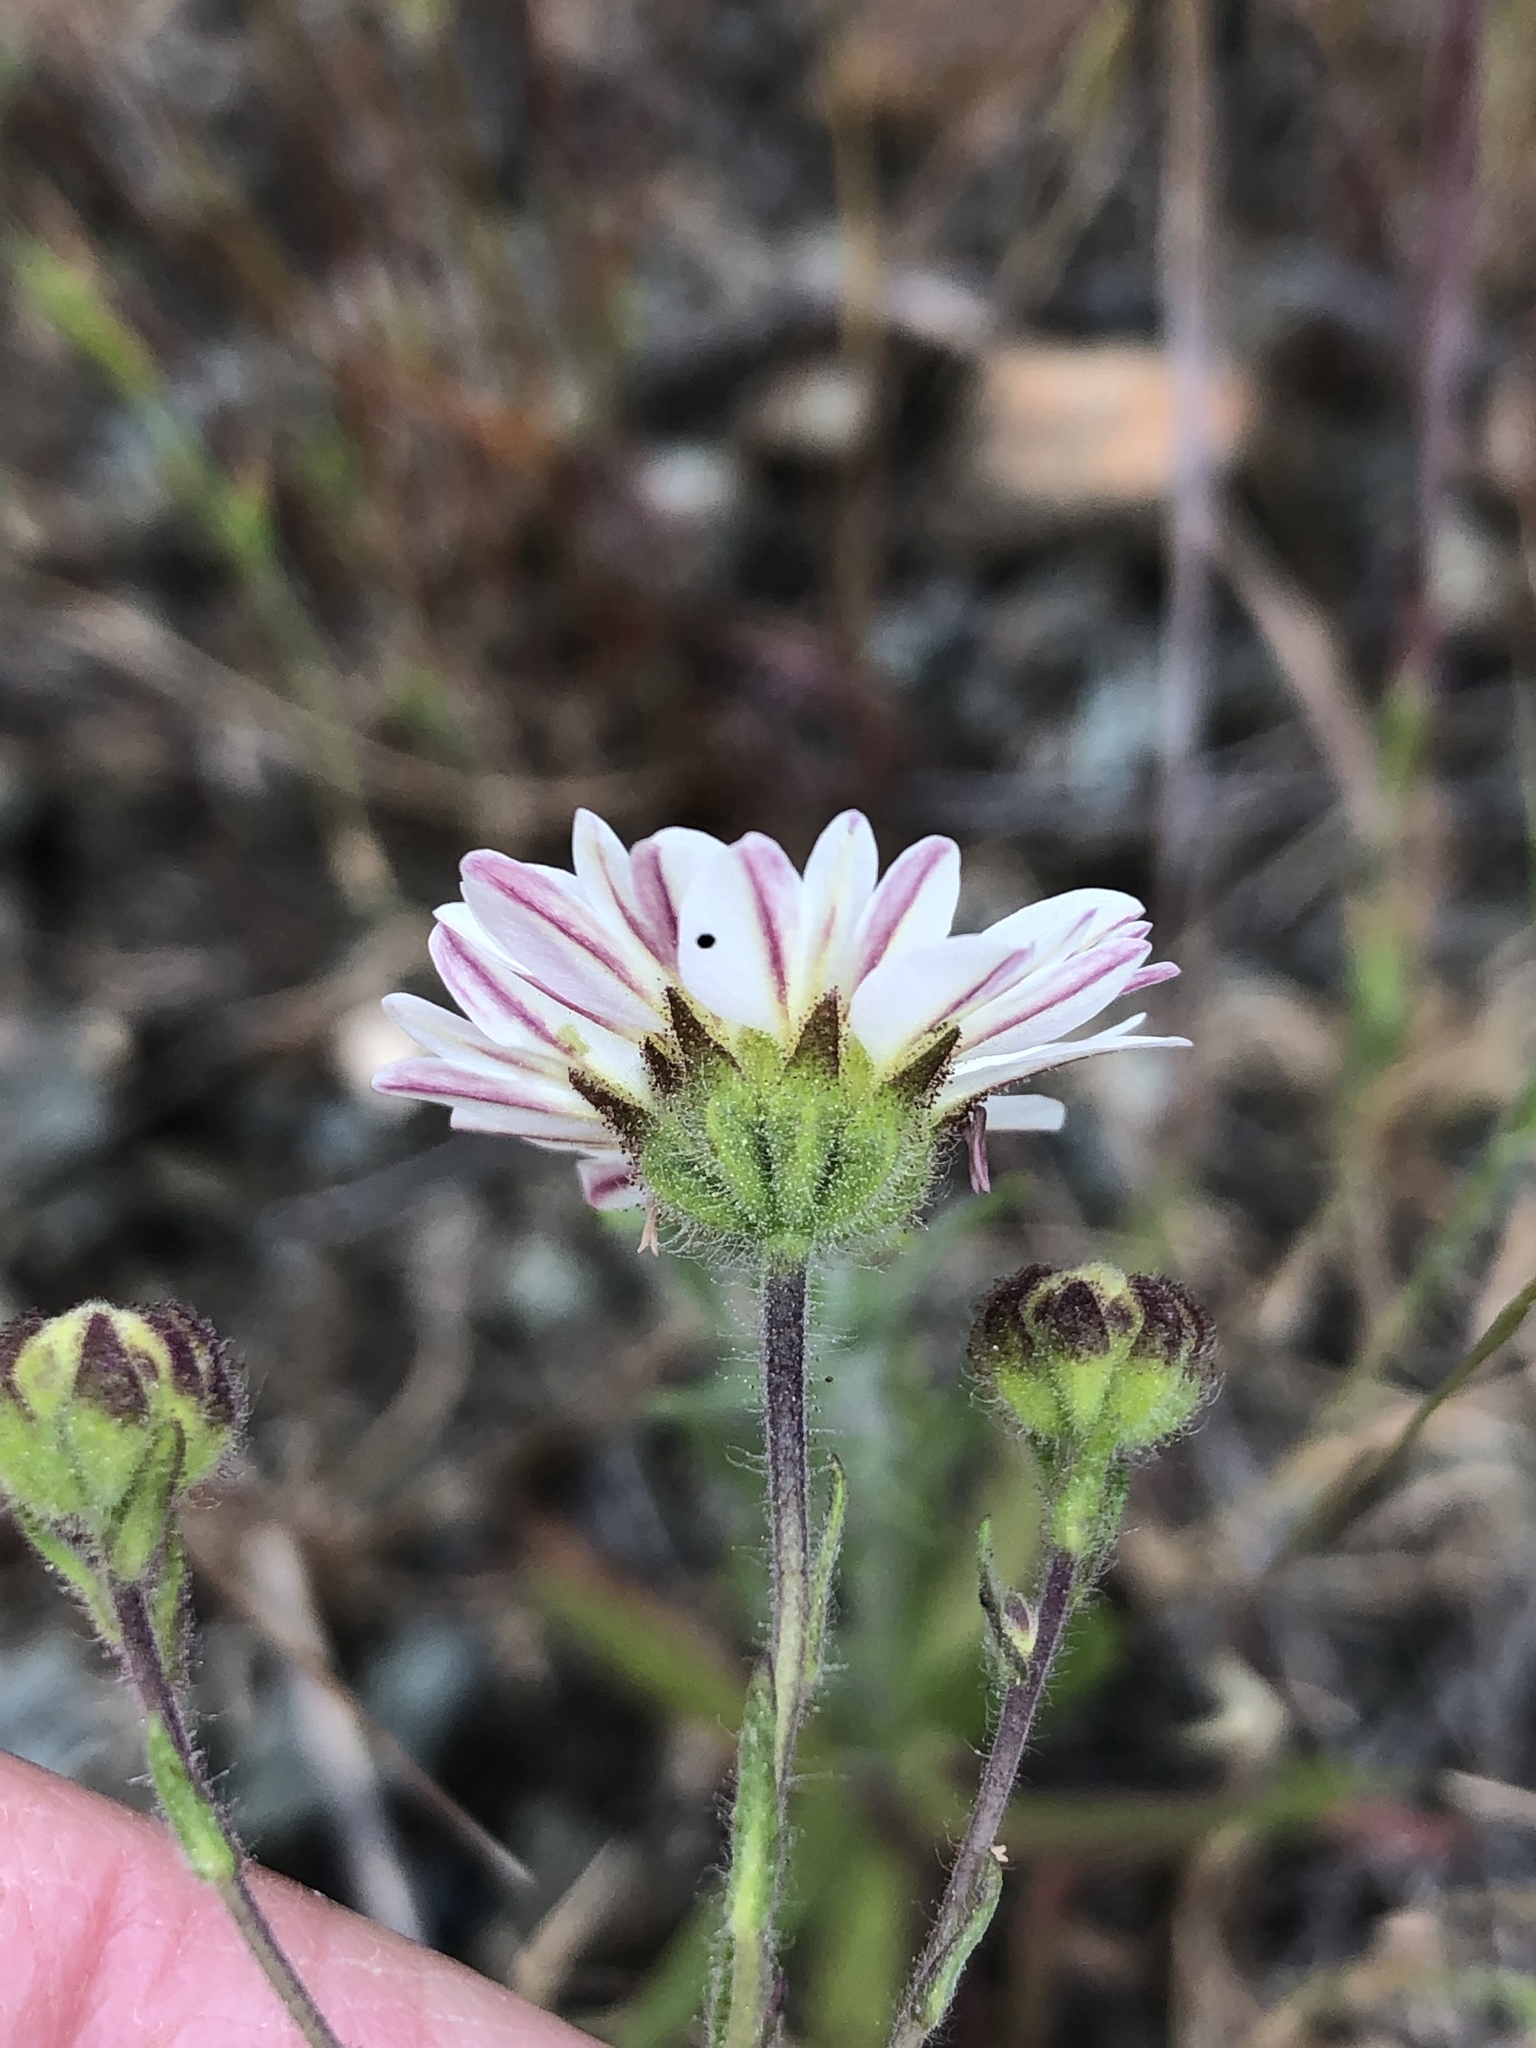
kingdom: Plantae
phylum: Tracheophyta
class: Magnoliopsida
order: Asterales
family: Asteraceae
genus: Hemizonia
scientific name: Hemizonia congesta
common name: Hayfield tarweed
